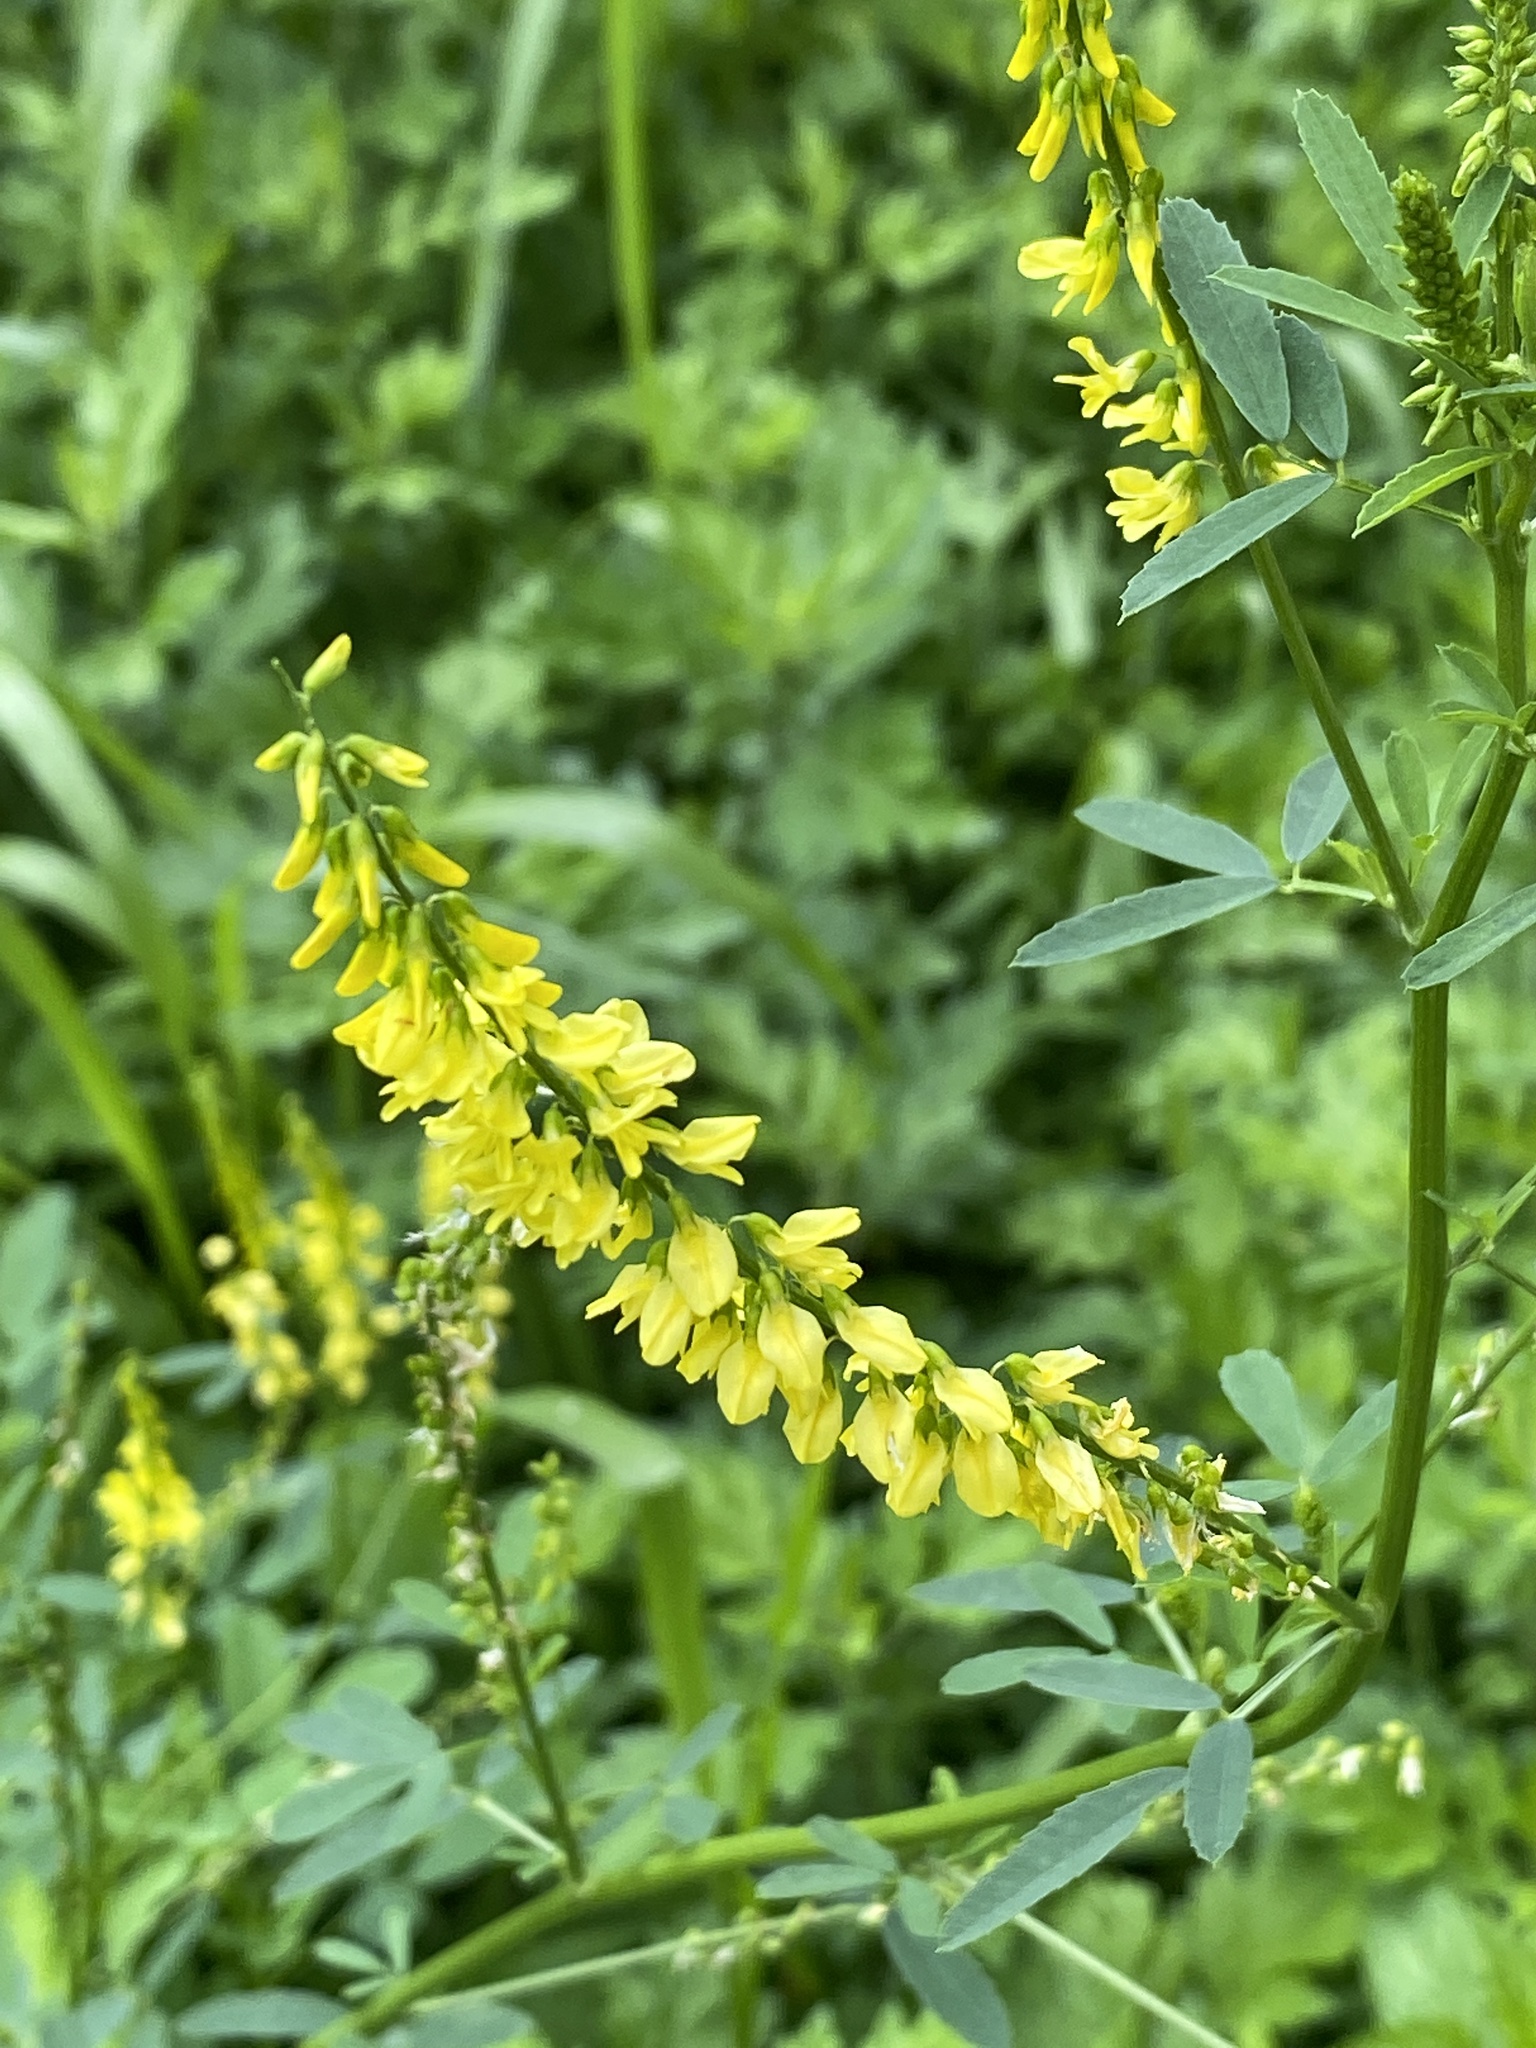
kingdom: Plantae
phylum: Tracheophyta
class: Magnoliopsida
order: Fabales
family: Fabaceae
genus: Melilotus
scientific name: Melilotus officinalis
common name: Sweetclover
